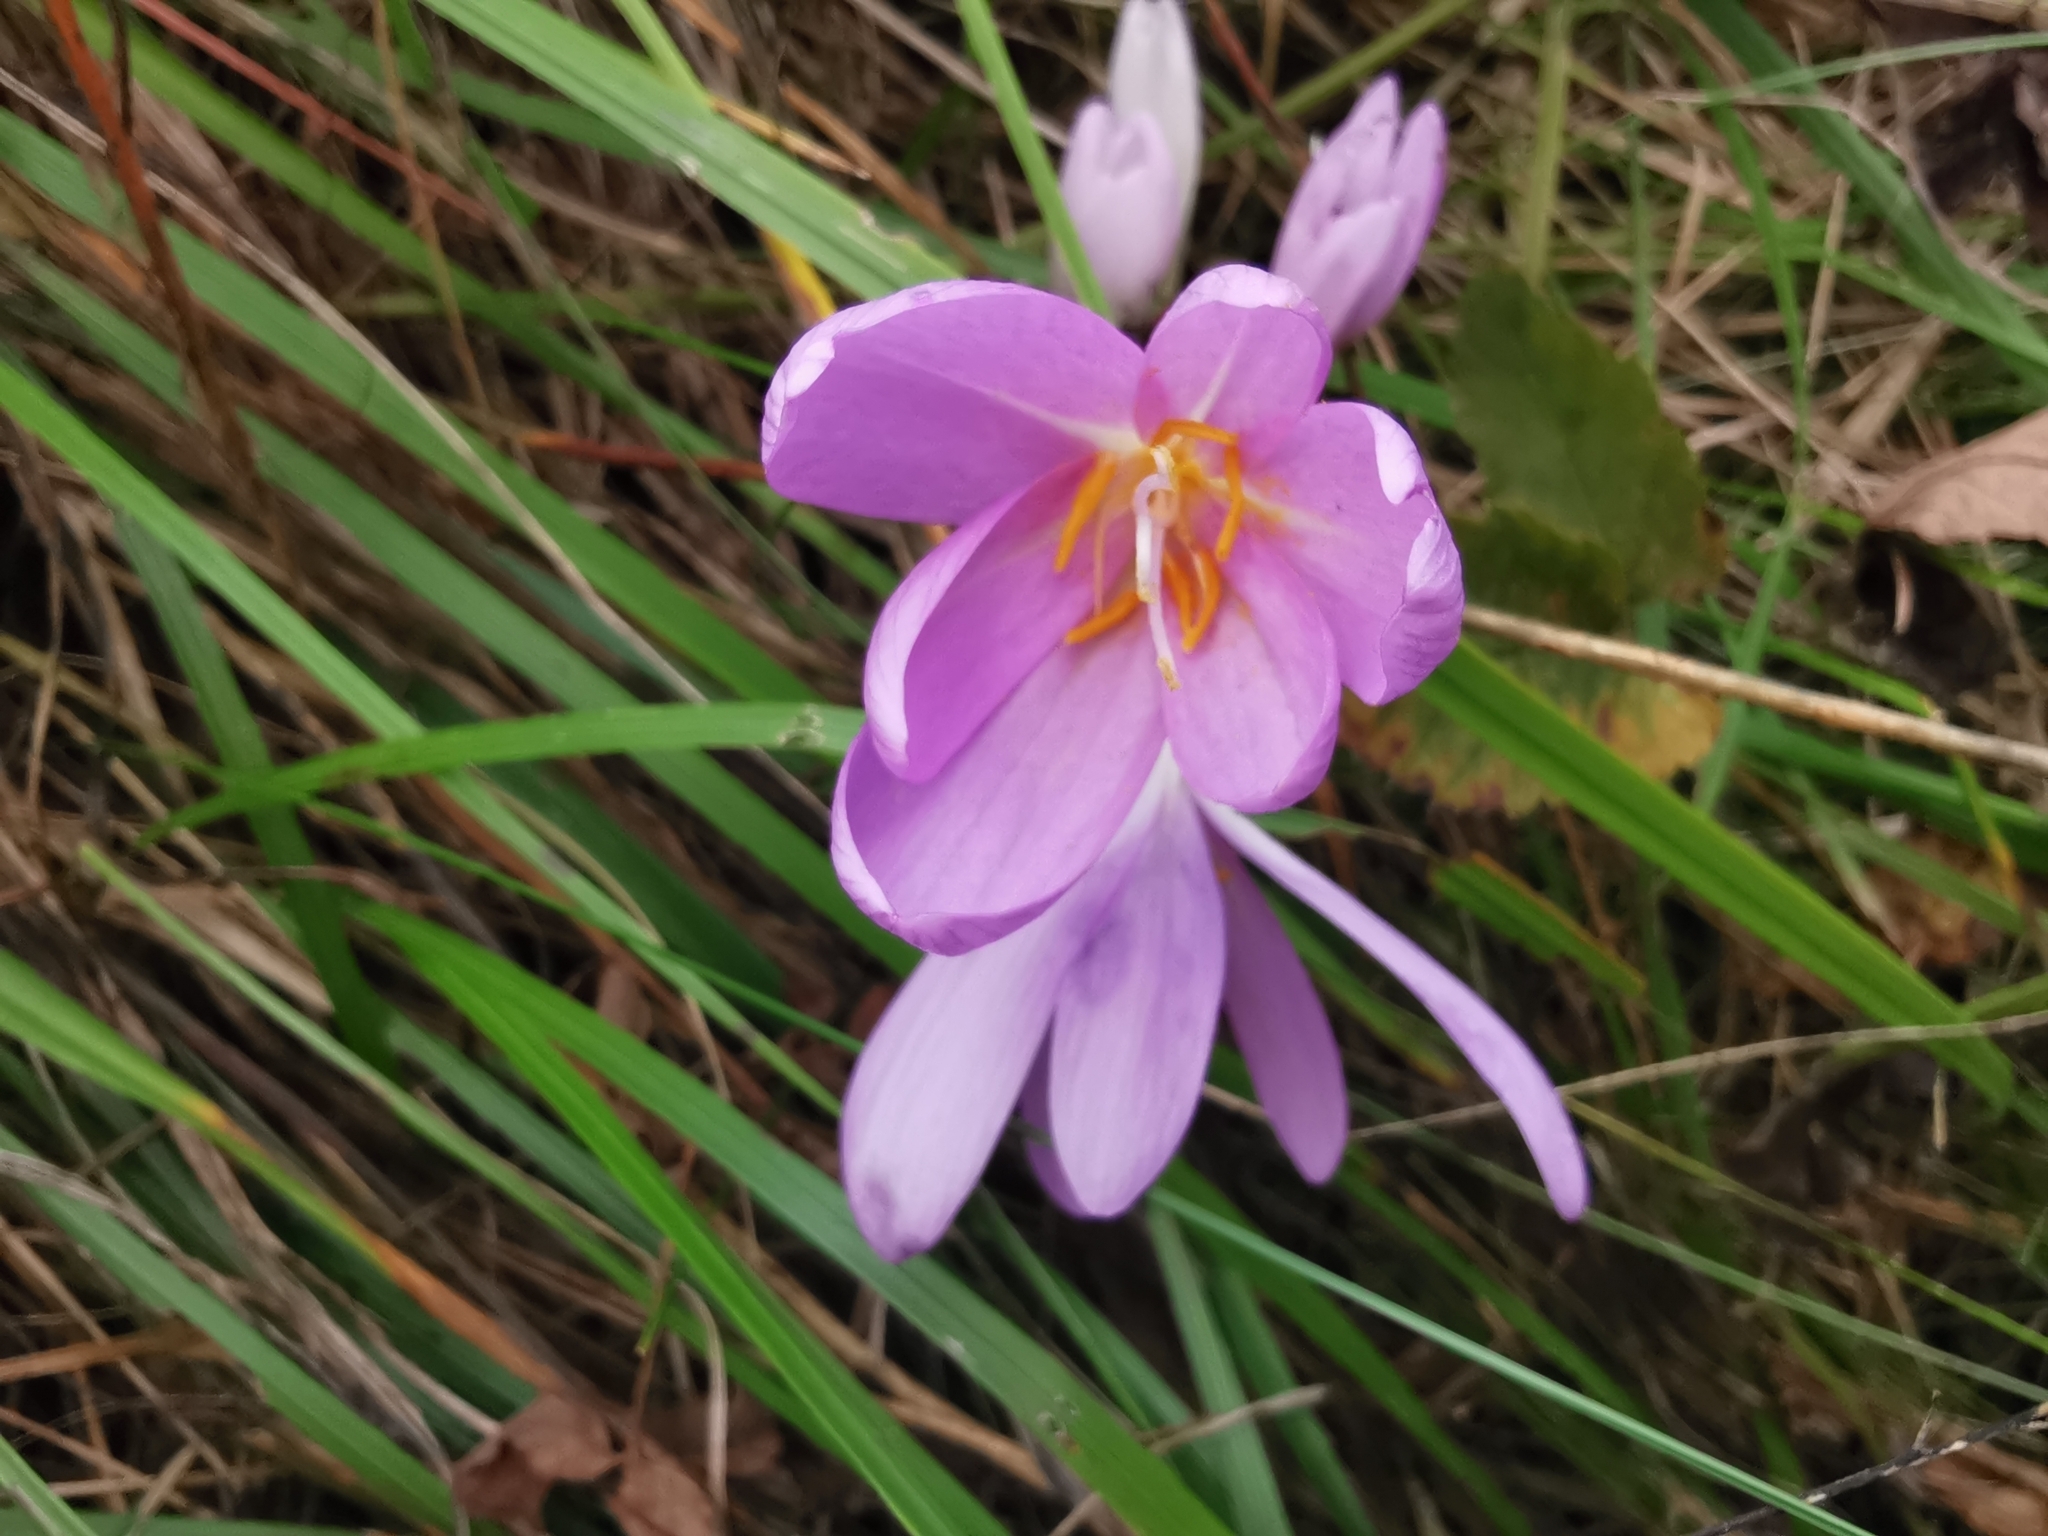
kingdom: Plantae
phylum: Tracheophyta
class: Liliopsida
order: Liliales
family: Colchicaceae
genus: Colchicum
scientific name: Colchicum autumnale
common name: Autumn crocus
